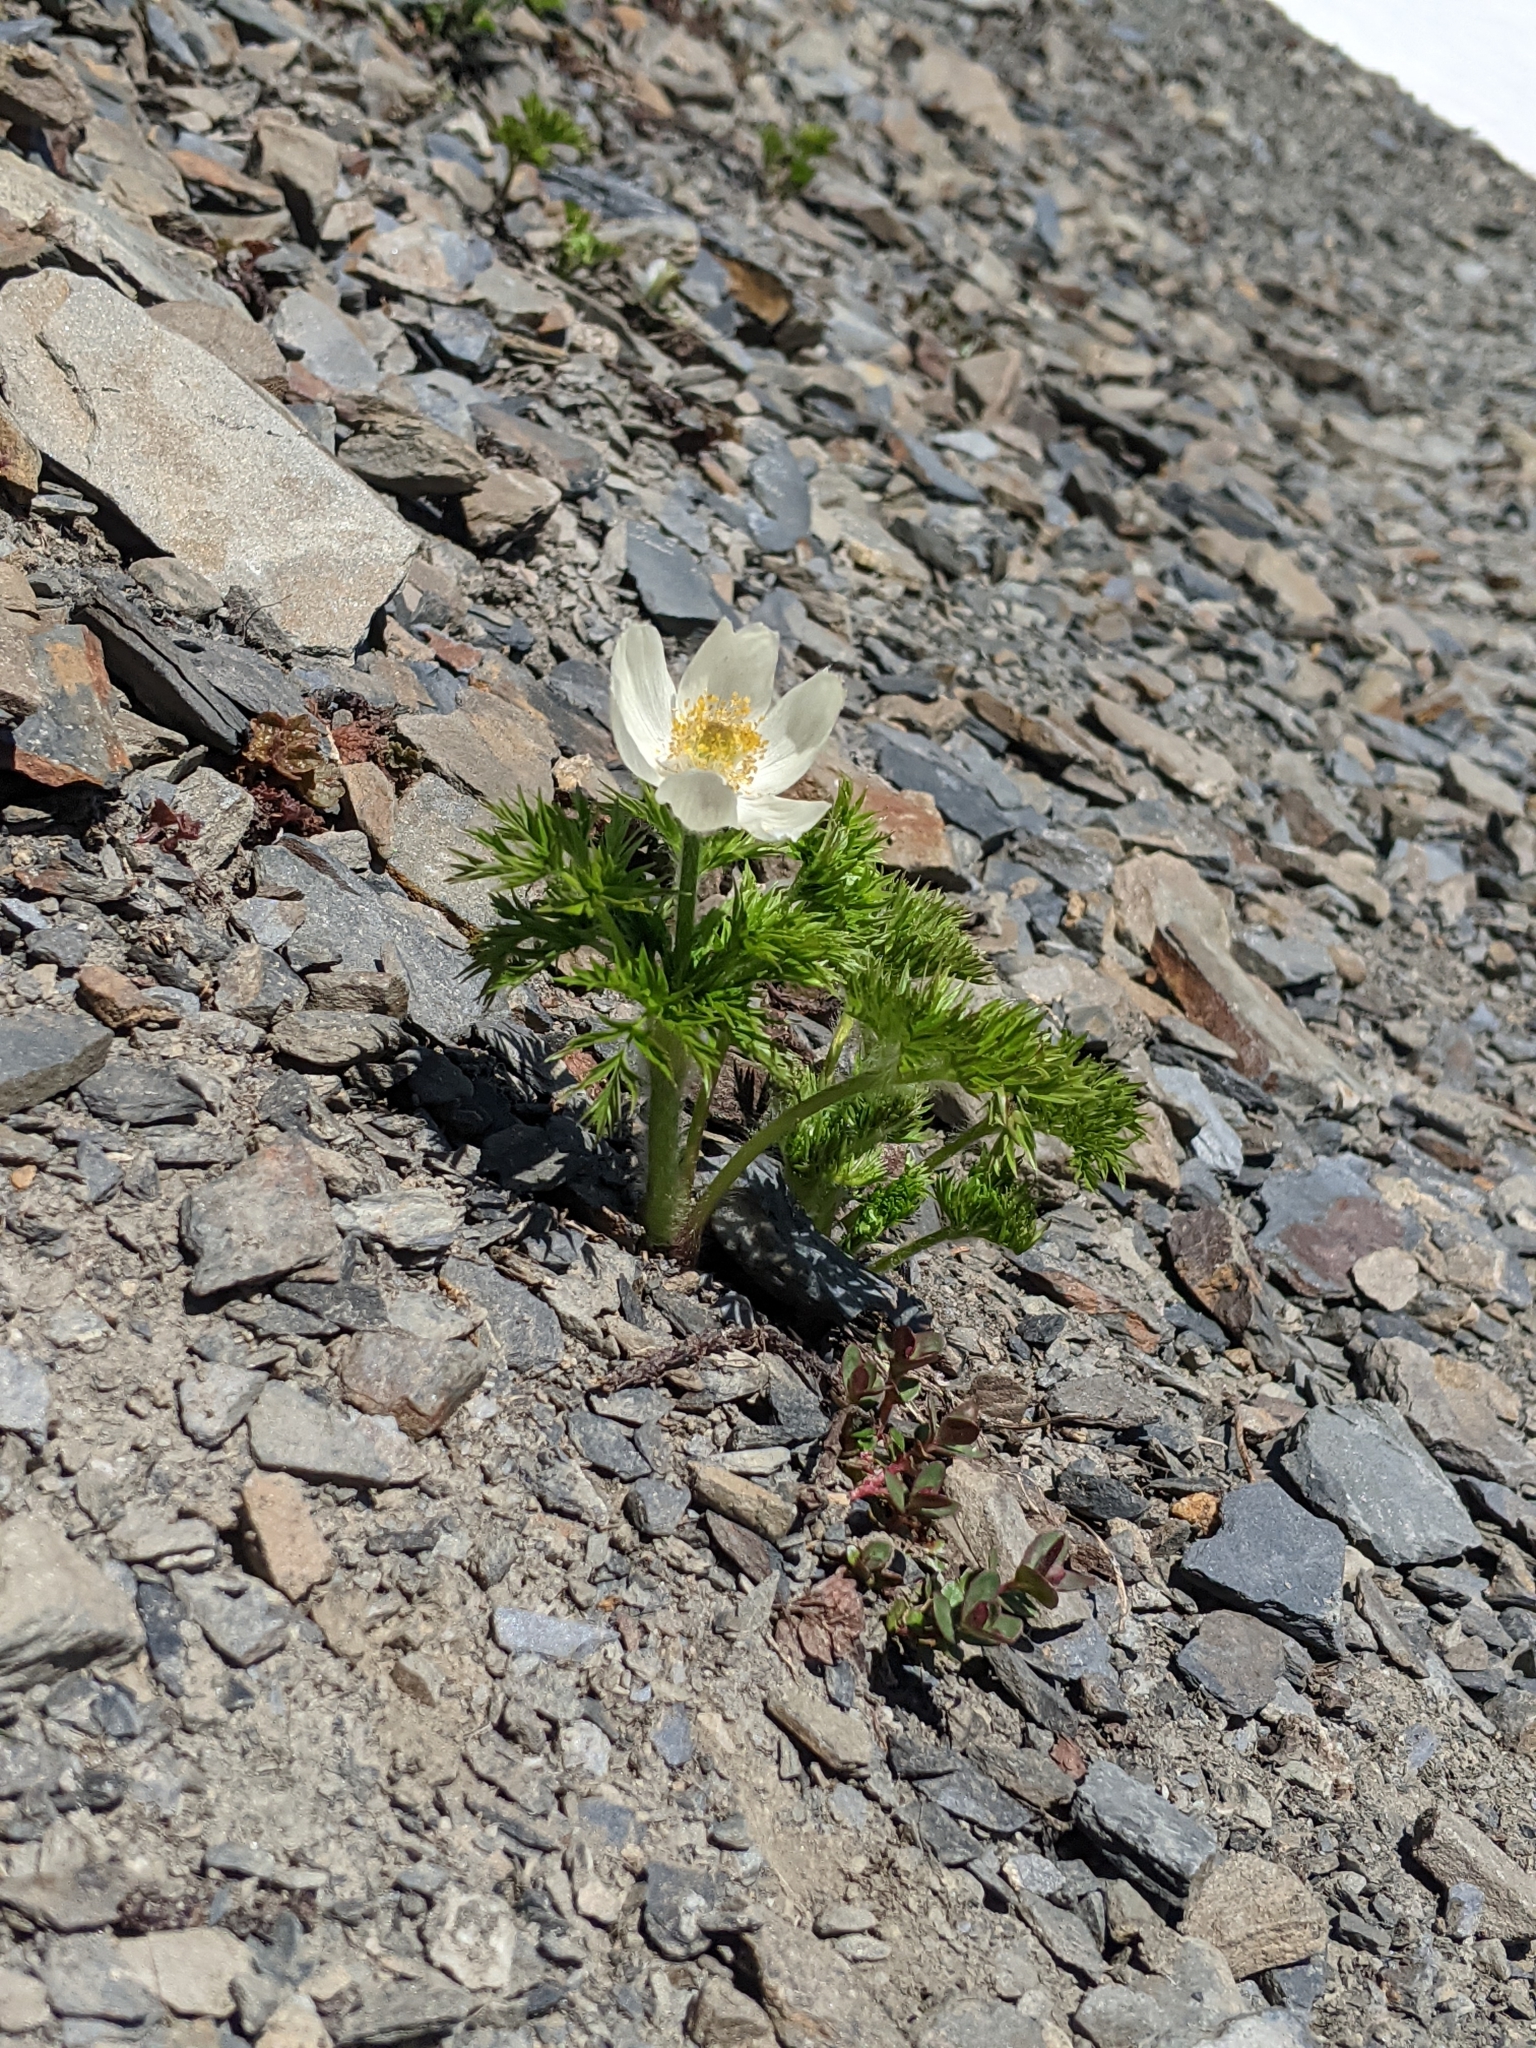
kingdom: Plantae
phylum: Tracheophyta
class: Magnoliopsida
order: Ranunculales
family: Ranunculaceae
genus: Pulsatilla
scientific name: Pulsatilla occidentalis
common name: Mountain pasqueflower
